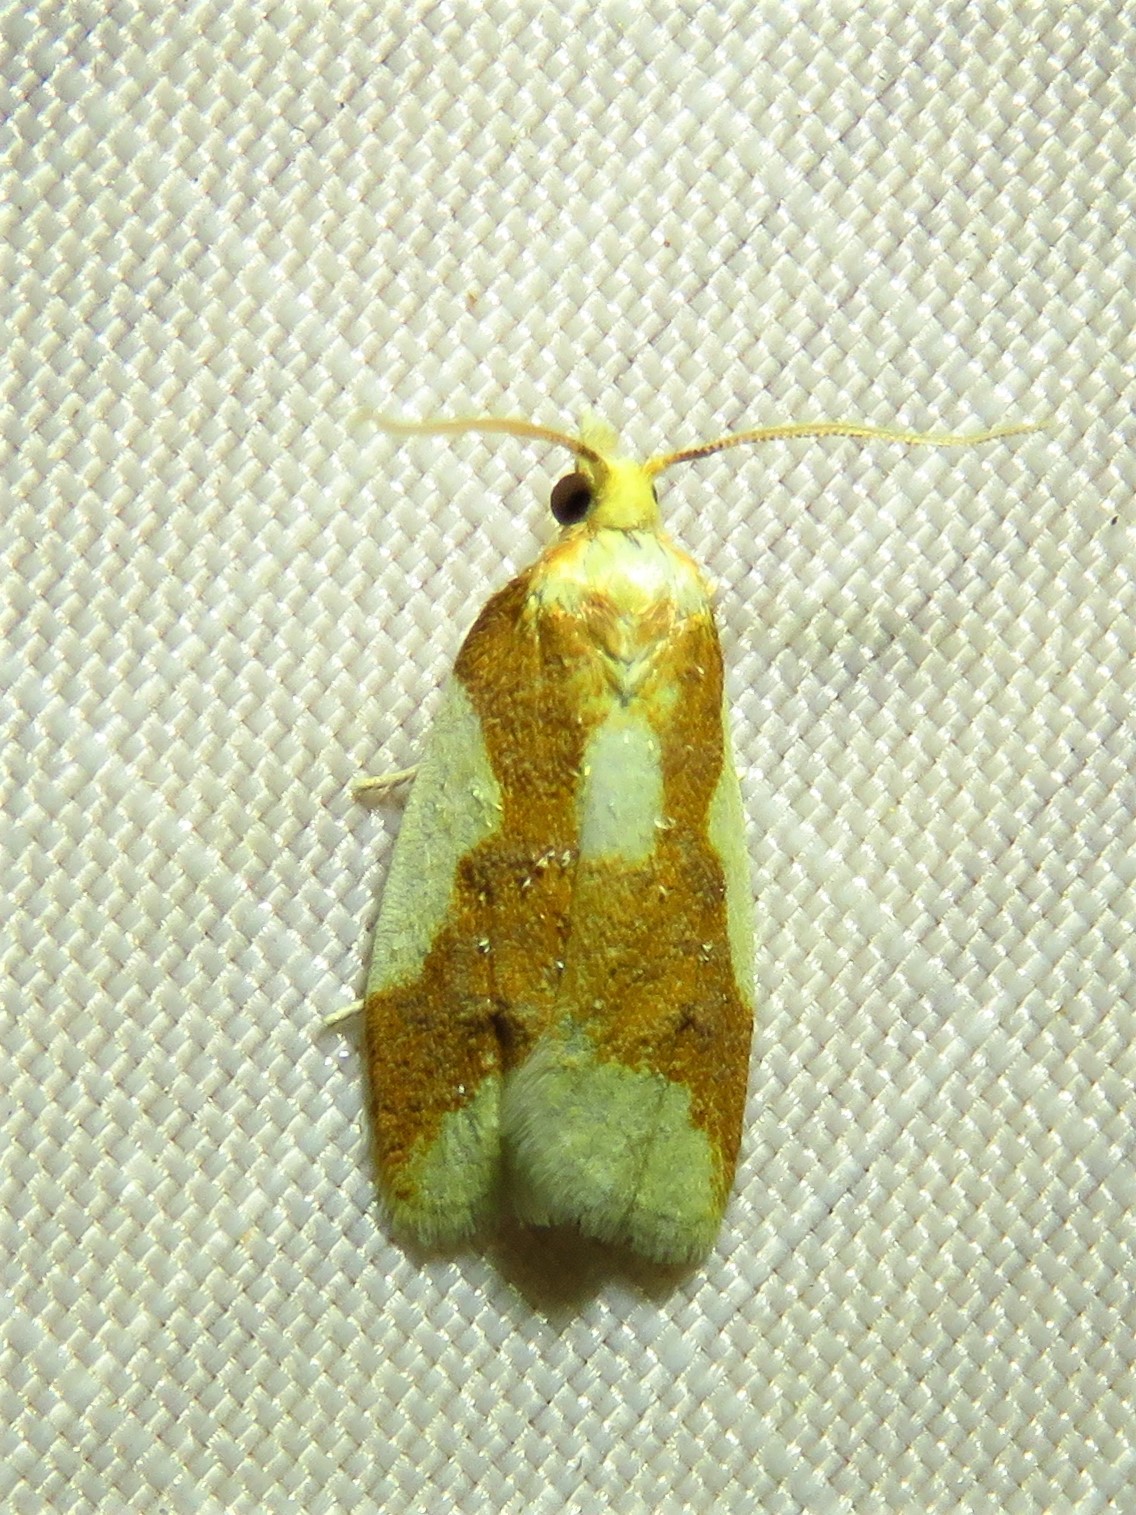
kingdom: Animalia
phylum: Arthropoda
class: Insecta
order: Lepidoptera
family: Tortricidae
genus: Sparganothis
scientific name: Sparganothis pulcherrimana
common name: Beautiful sparganothis
